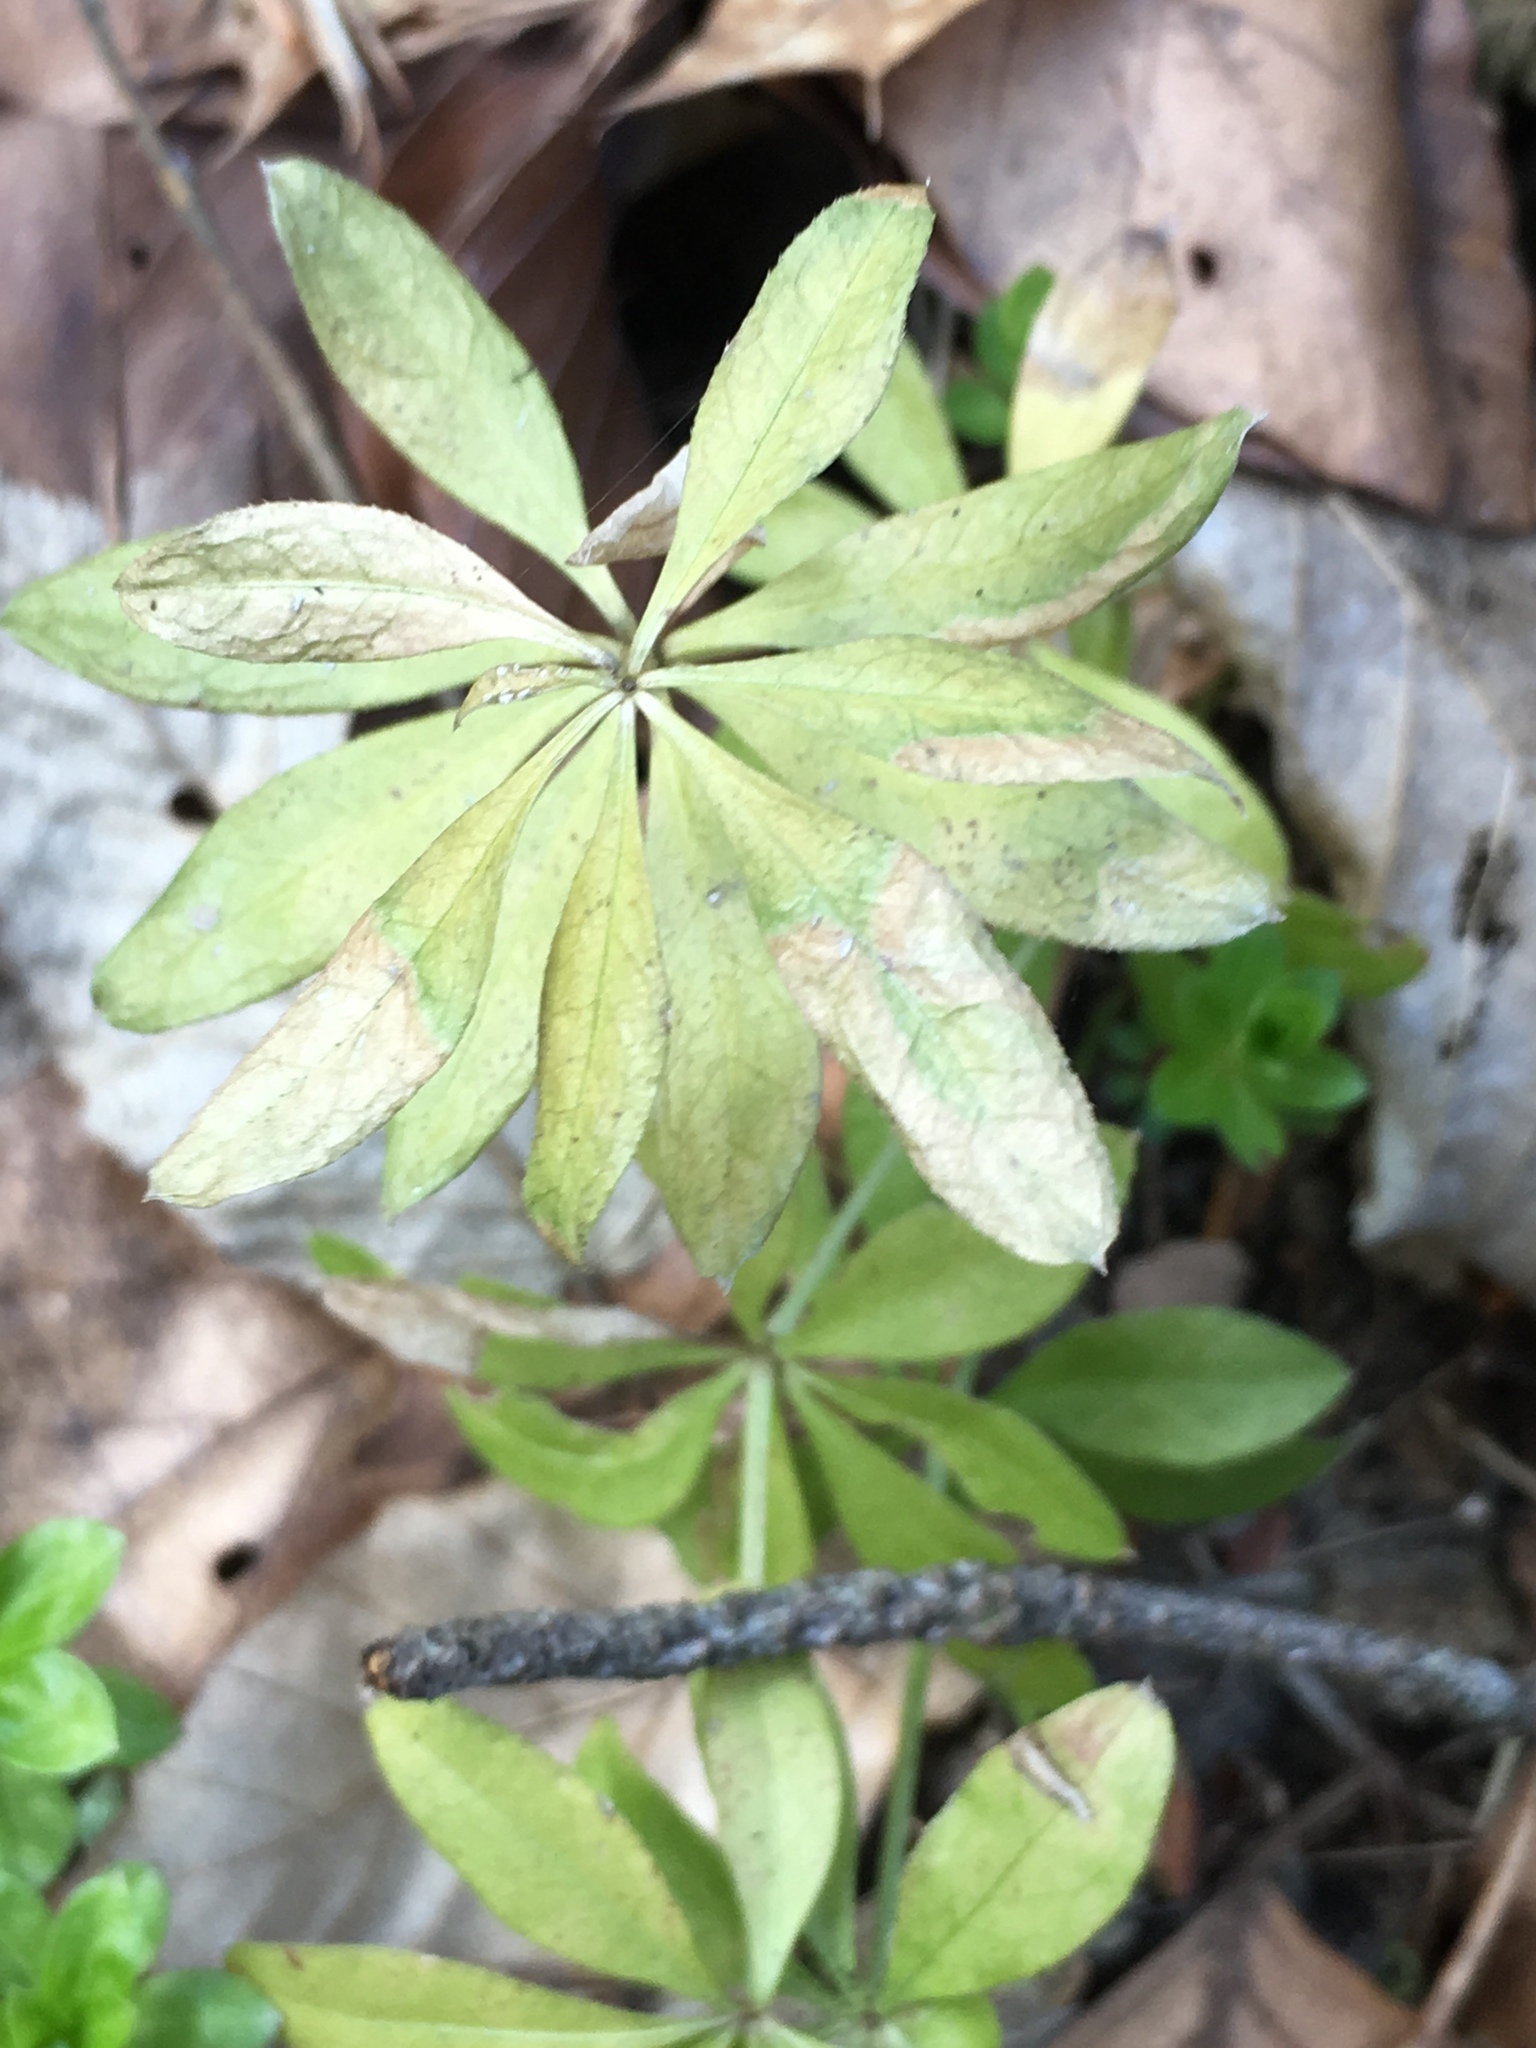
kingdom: Plantae
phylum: Tracheophyta
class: Magnoliopsida
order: Gentianales
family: Rubiaceae
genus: Galium
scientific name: Galium odoratum
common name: Sweet woodruff
